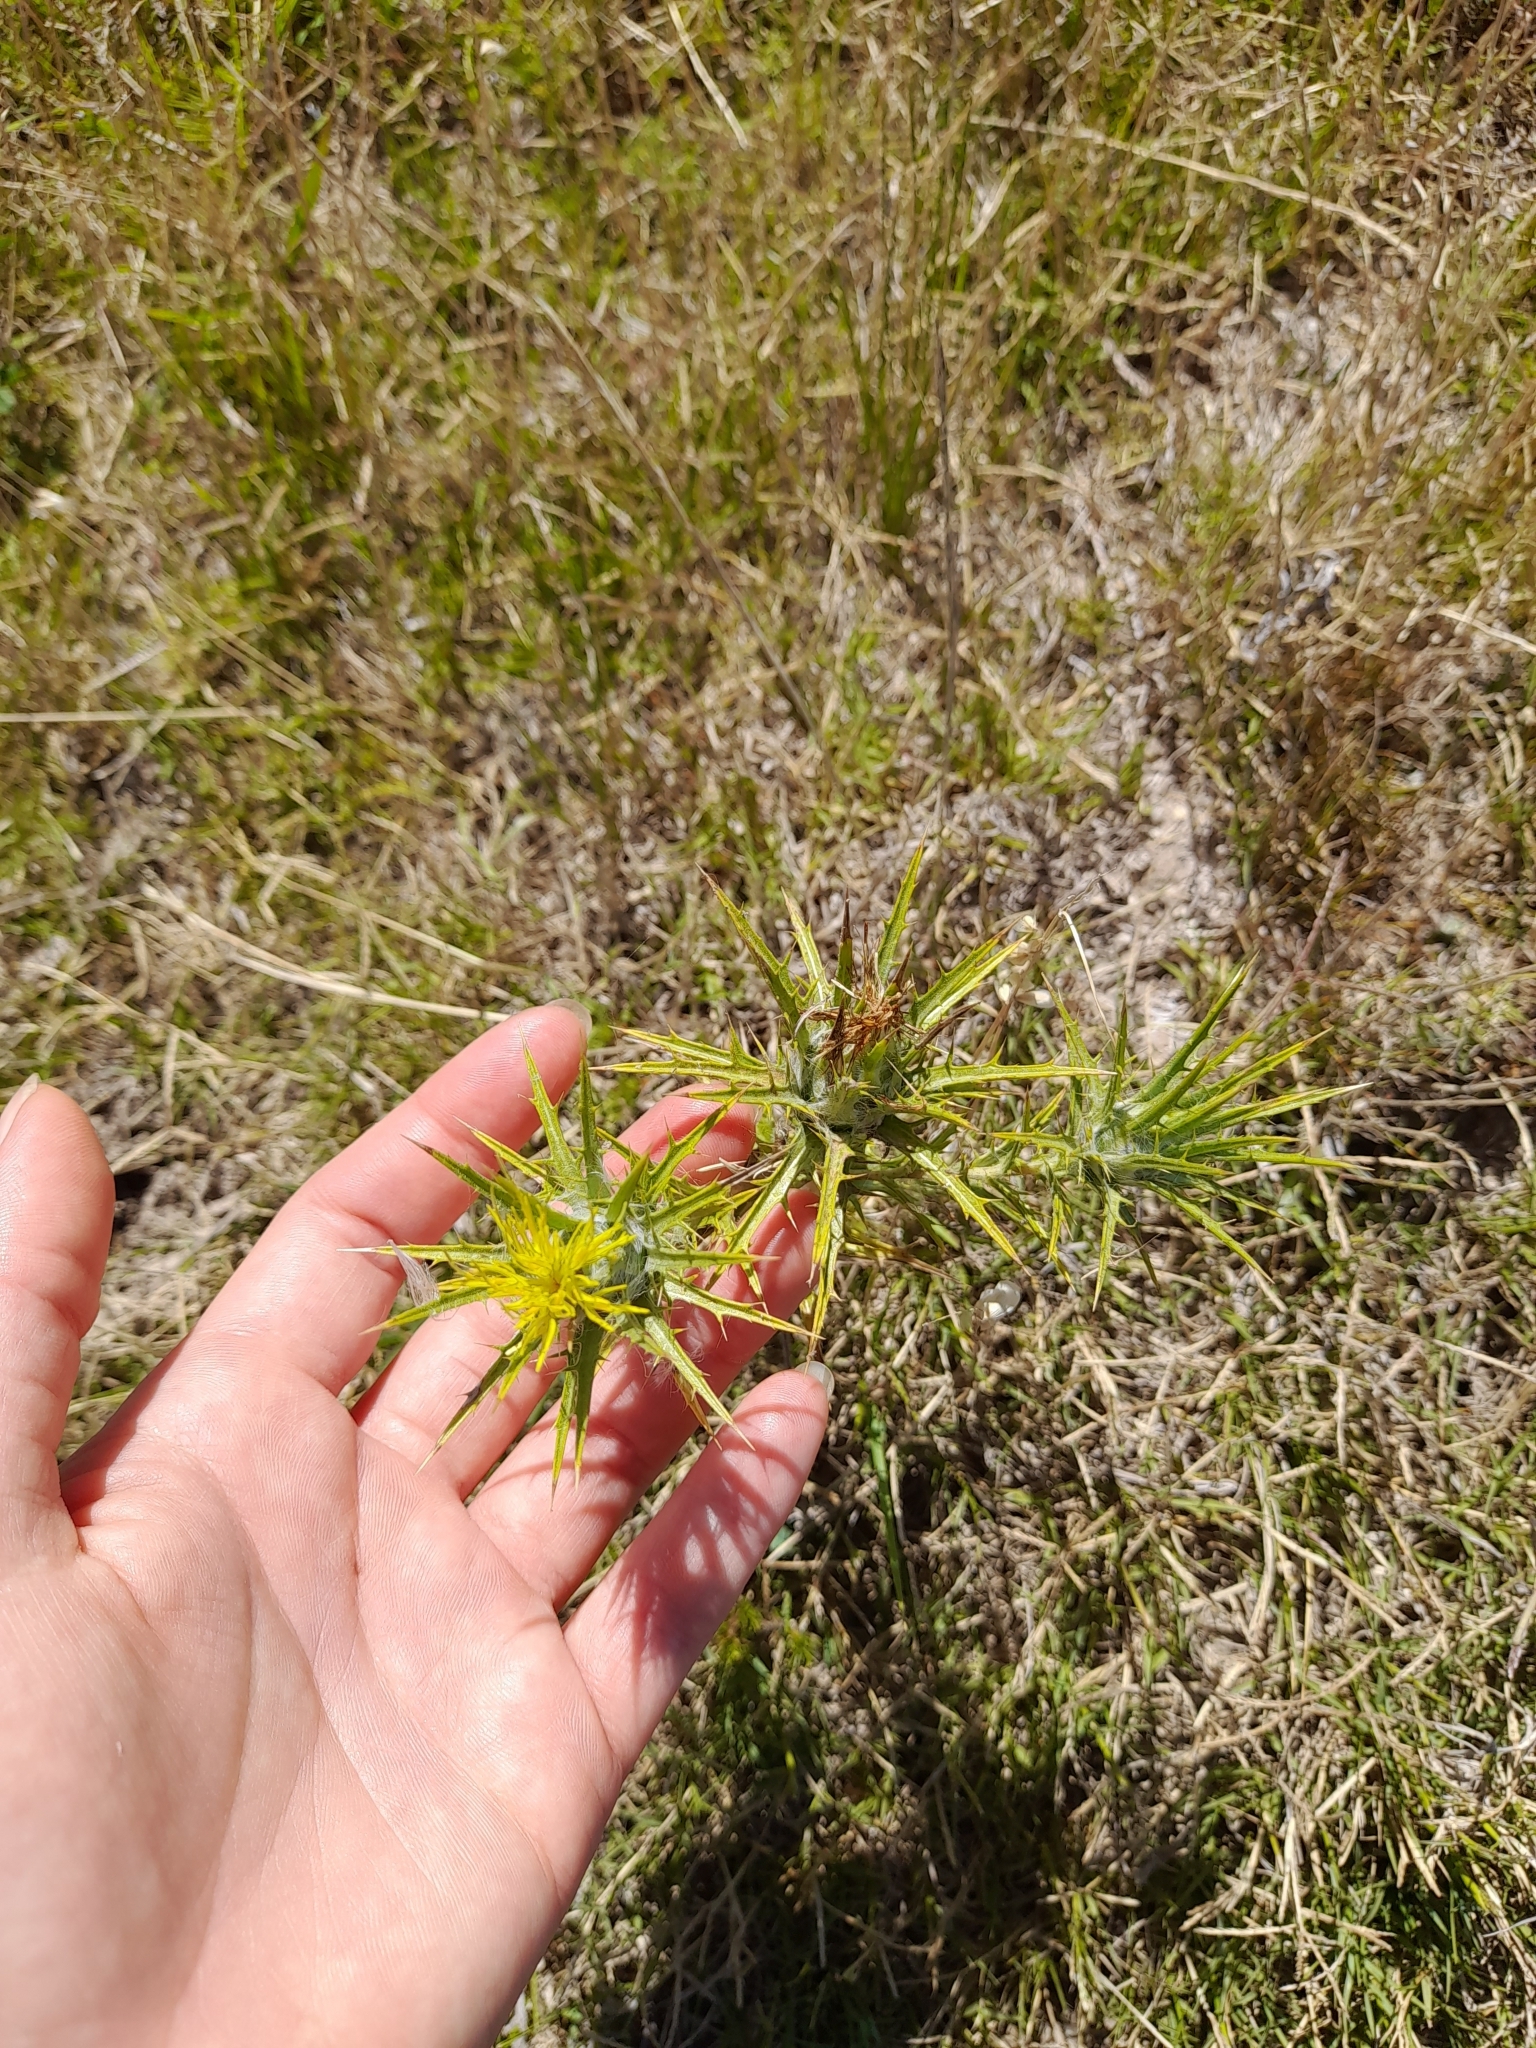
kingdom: Plantae
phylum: Tracheophyta
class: Magnoliopsida
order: Asterales
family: Asteraceae
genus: Carthamus
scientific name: Carthamus lanatus
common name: Downy safflower
